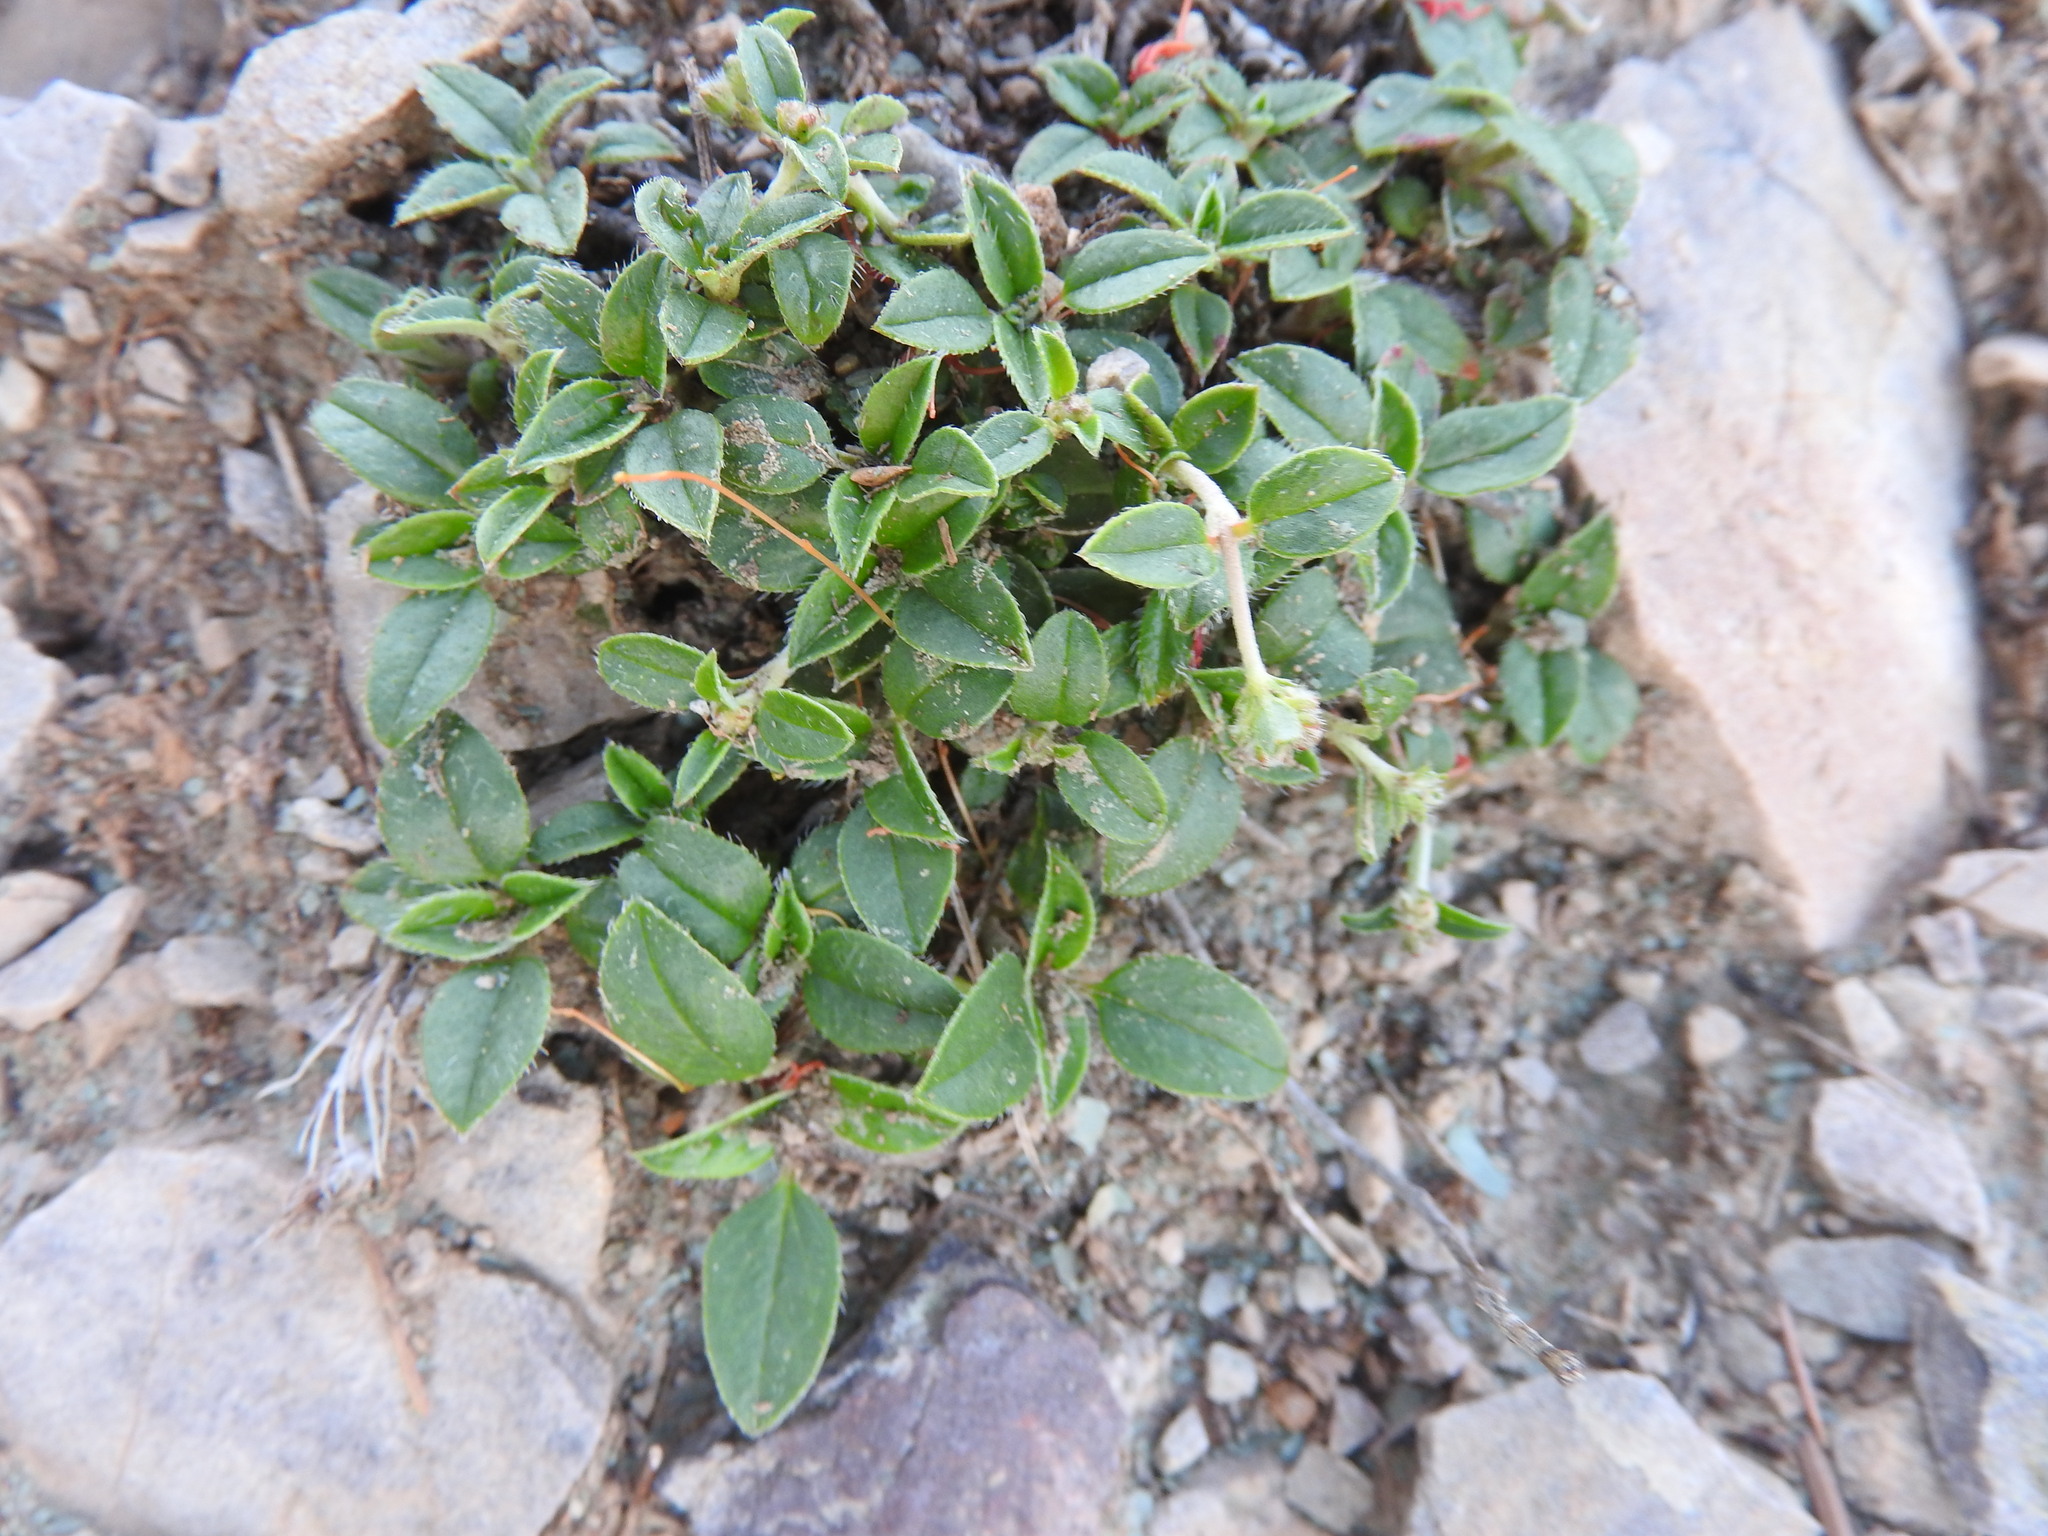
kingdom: Plantae
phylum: Tracheophyta
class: Magnoliopsida
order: Malvales
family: Cistaceae
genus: Helianthemum
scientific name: Helianthemum cinereum
